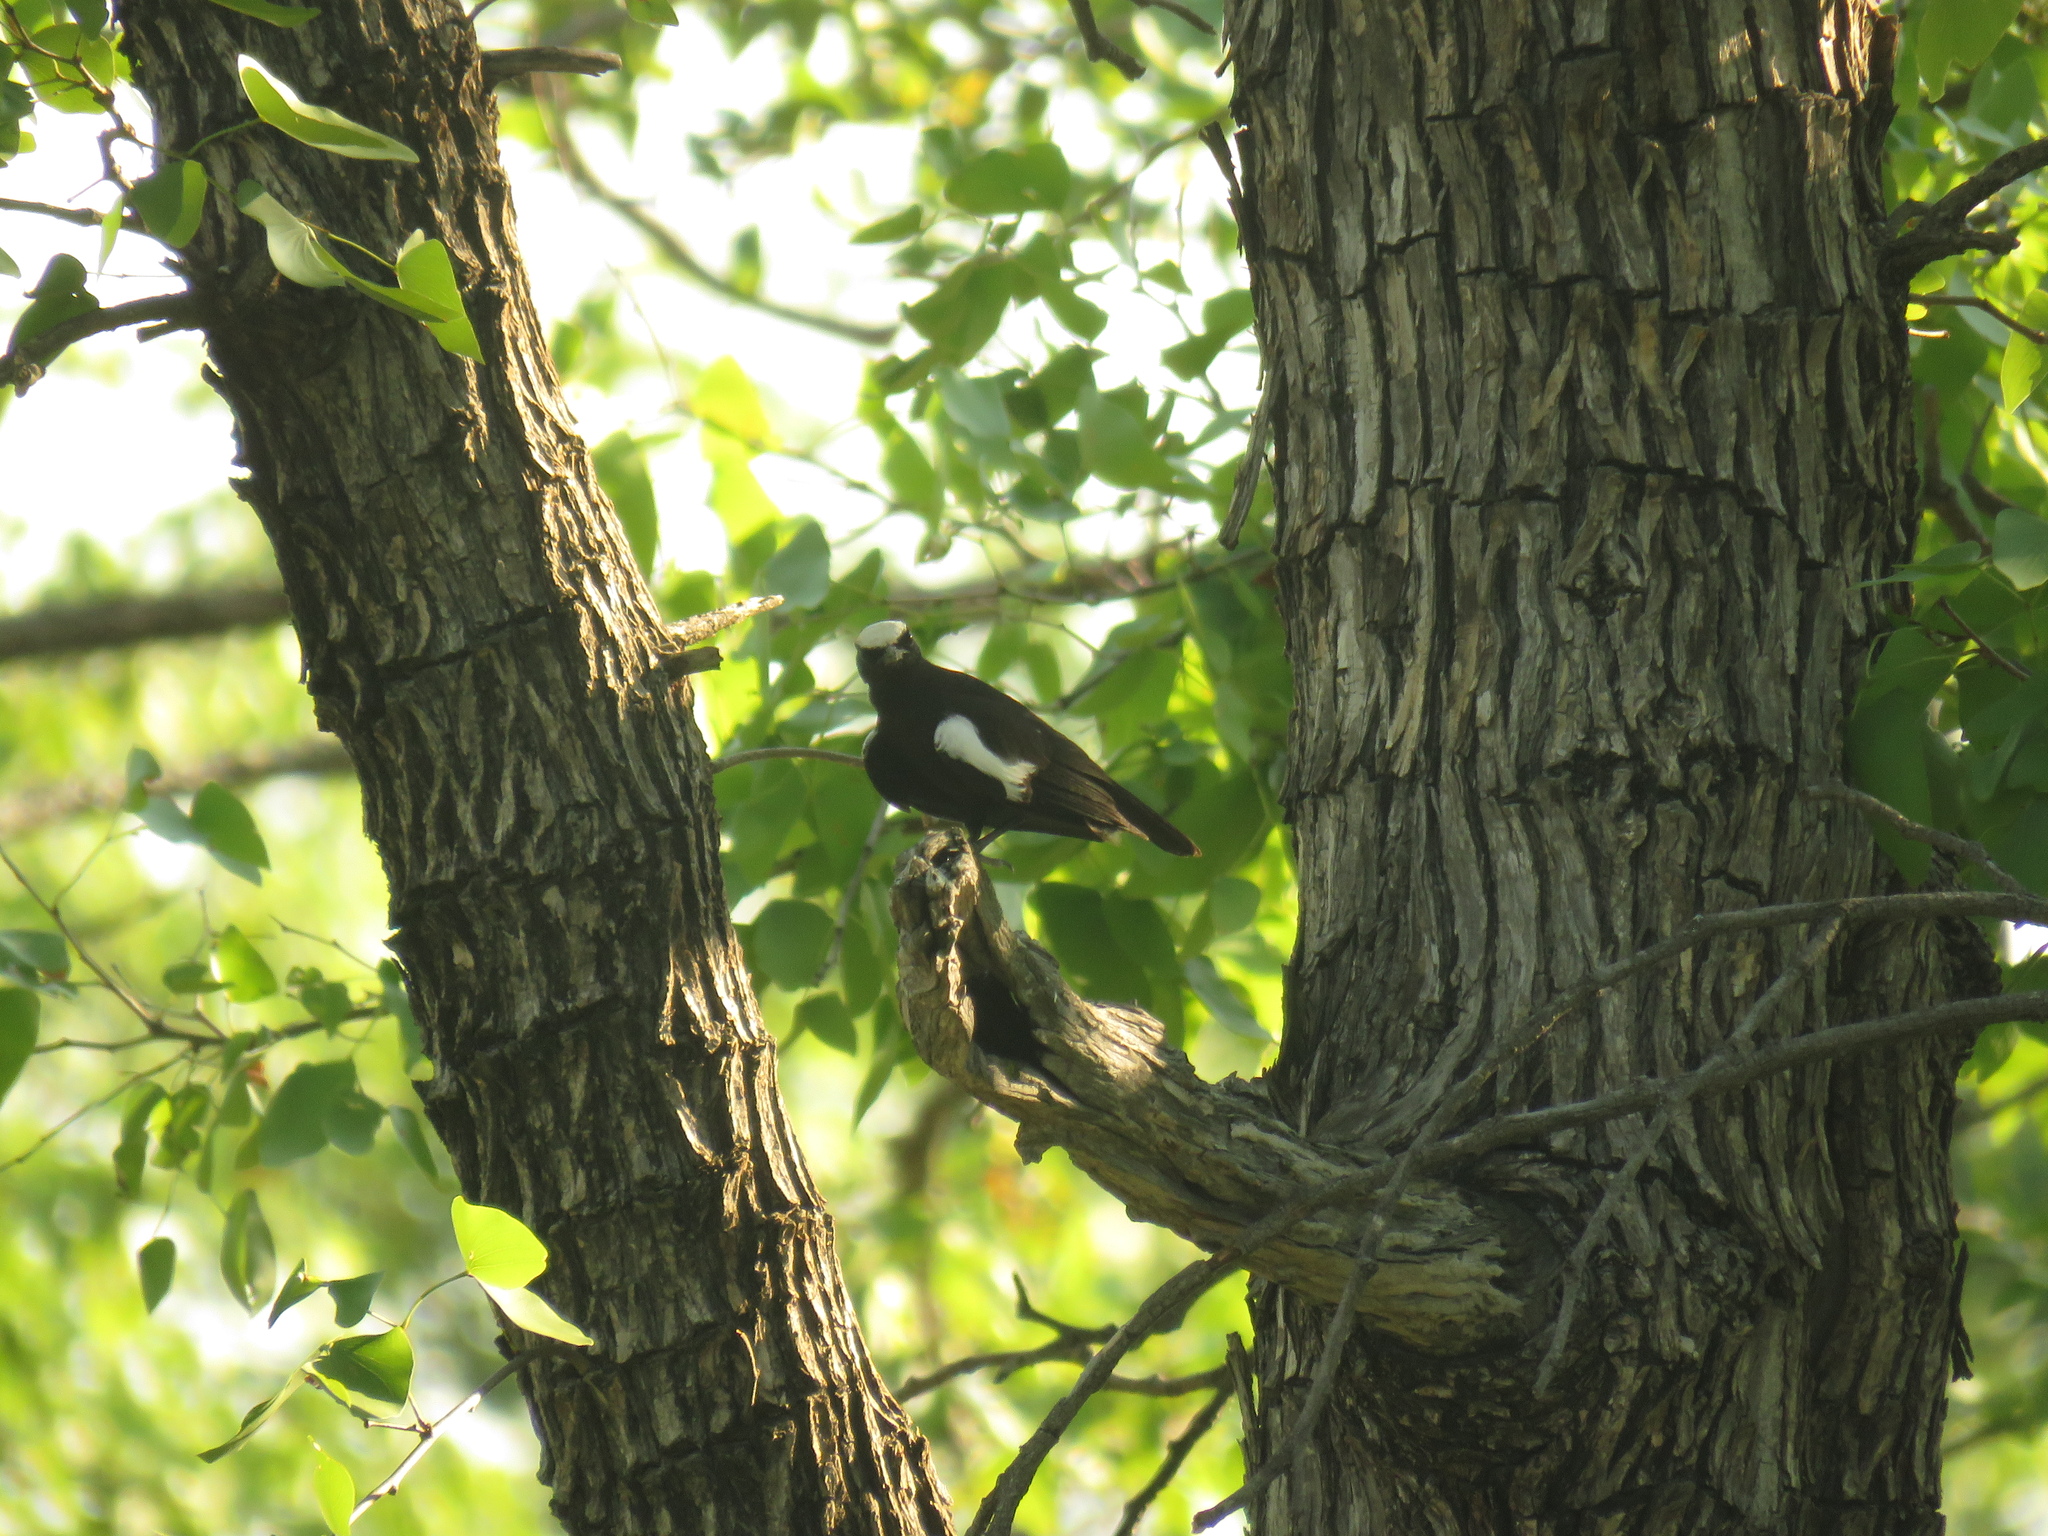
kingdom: Animalia
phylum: Chordata
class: Aves
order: Passeriformes
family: Muscicapidae
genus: Pentholaea
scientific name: Pentholaea arnotti
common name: Arnot's chat
